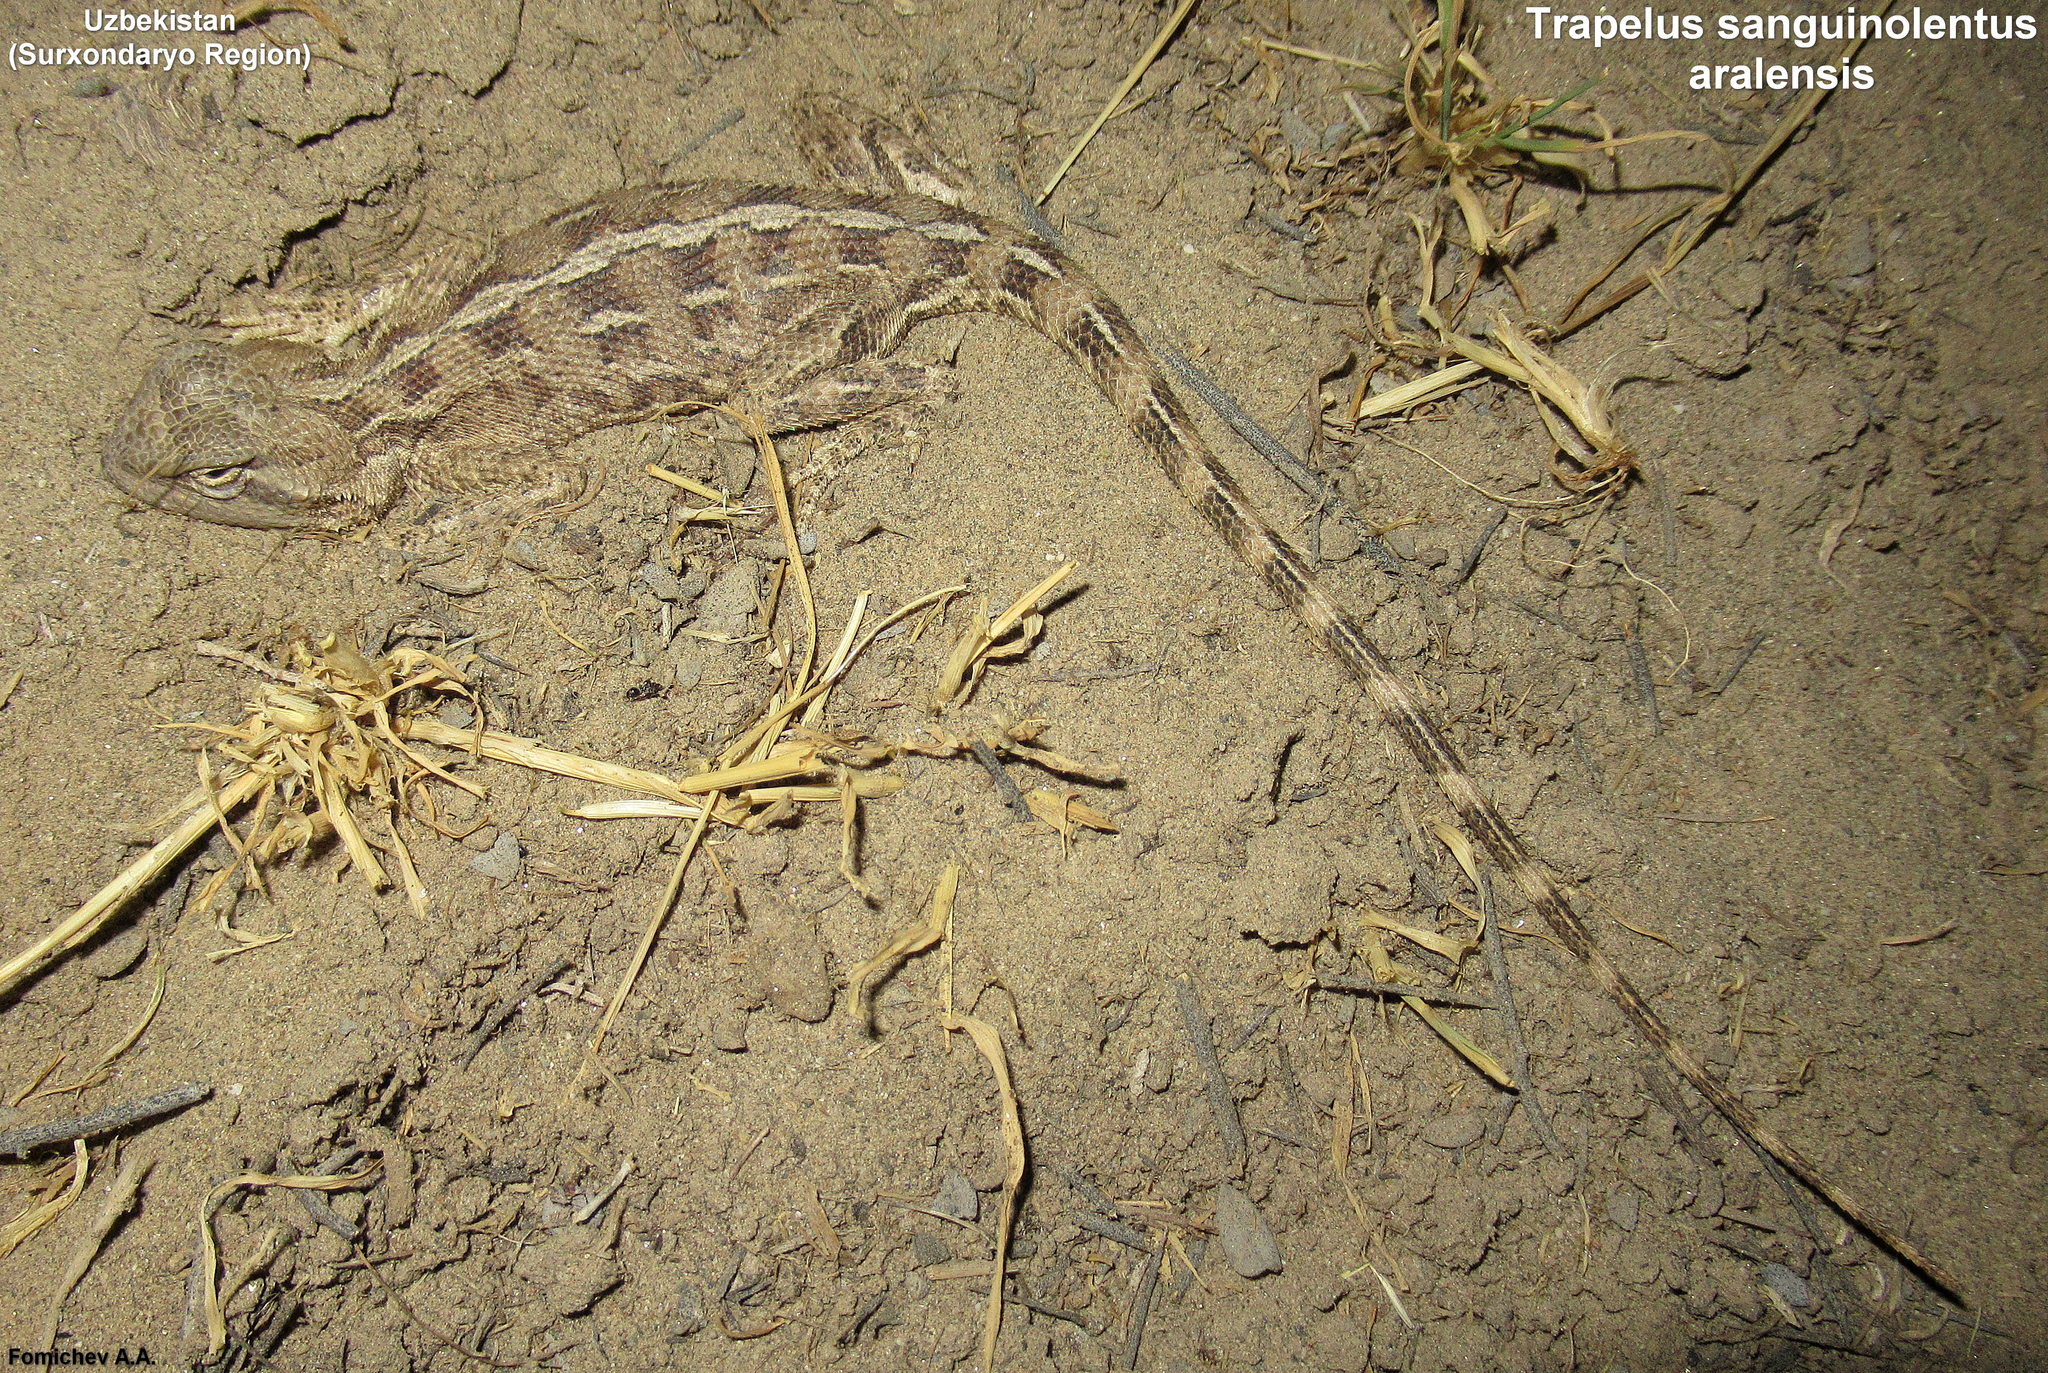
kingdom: Animalia
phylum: Chordata
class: Squamata
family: Agamidae
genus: Trapelus
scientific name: Trapelus sanguinolentus
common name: Steppe agama
